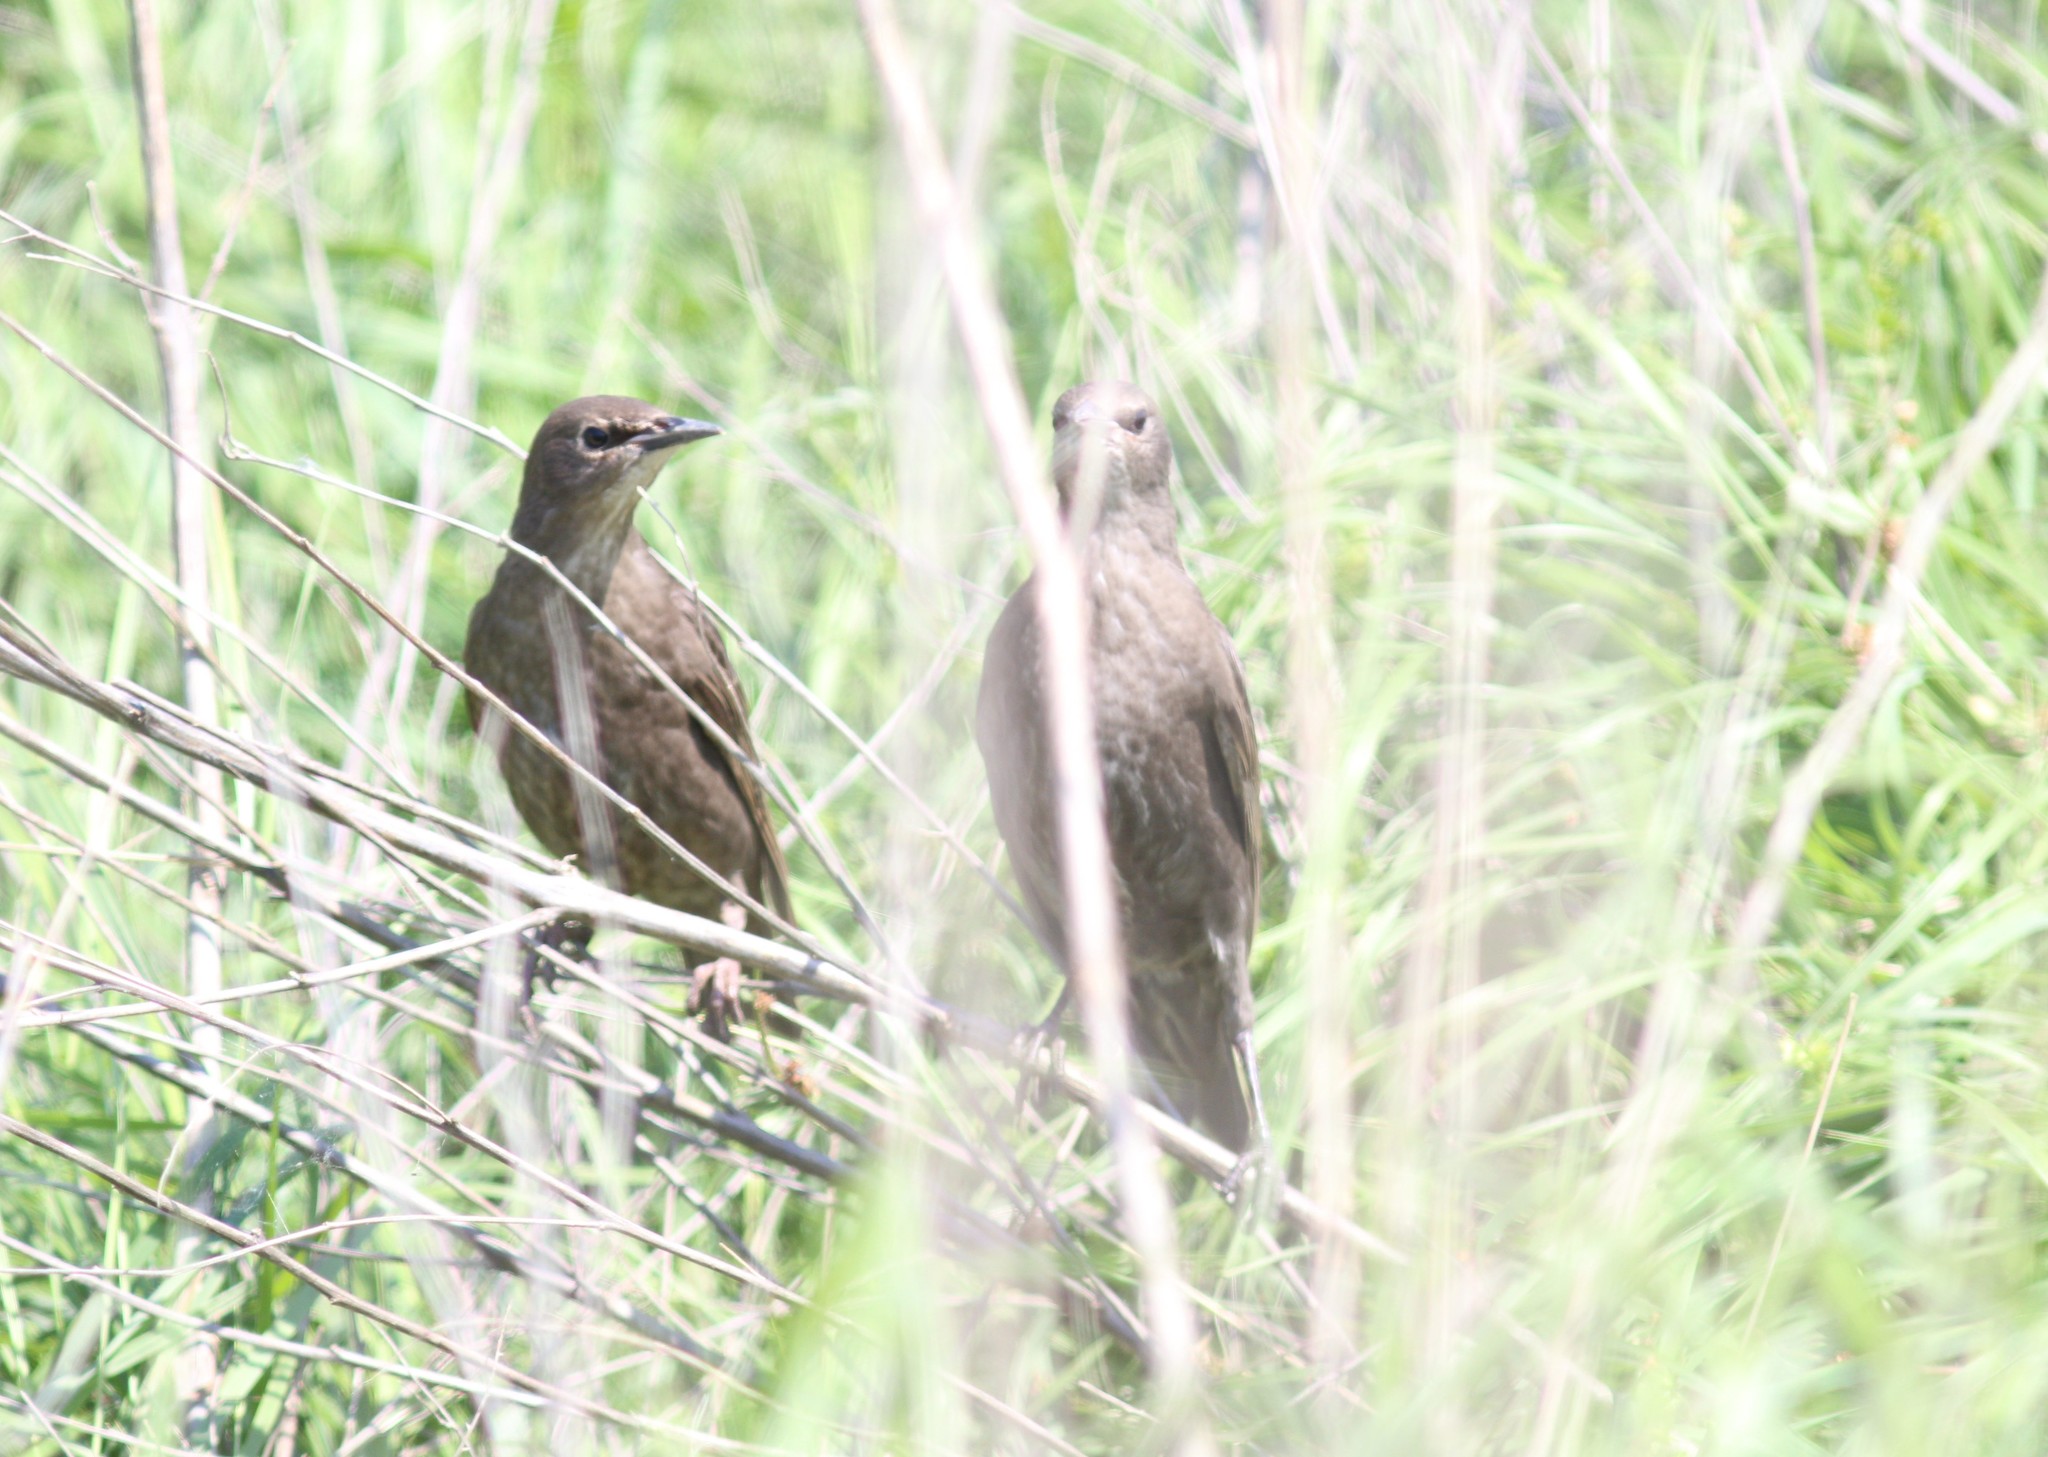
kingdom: Animalia
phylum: Chordata
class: Aves
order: Passeriformes
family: Sturnidae
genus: Sturnus
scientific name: Sturnus vulgaris
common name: Common starling
